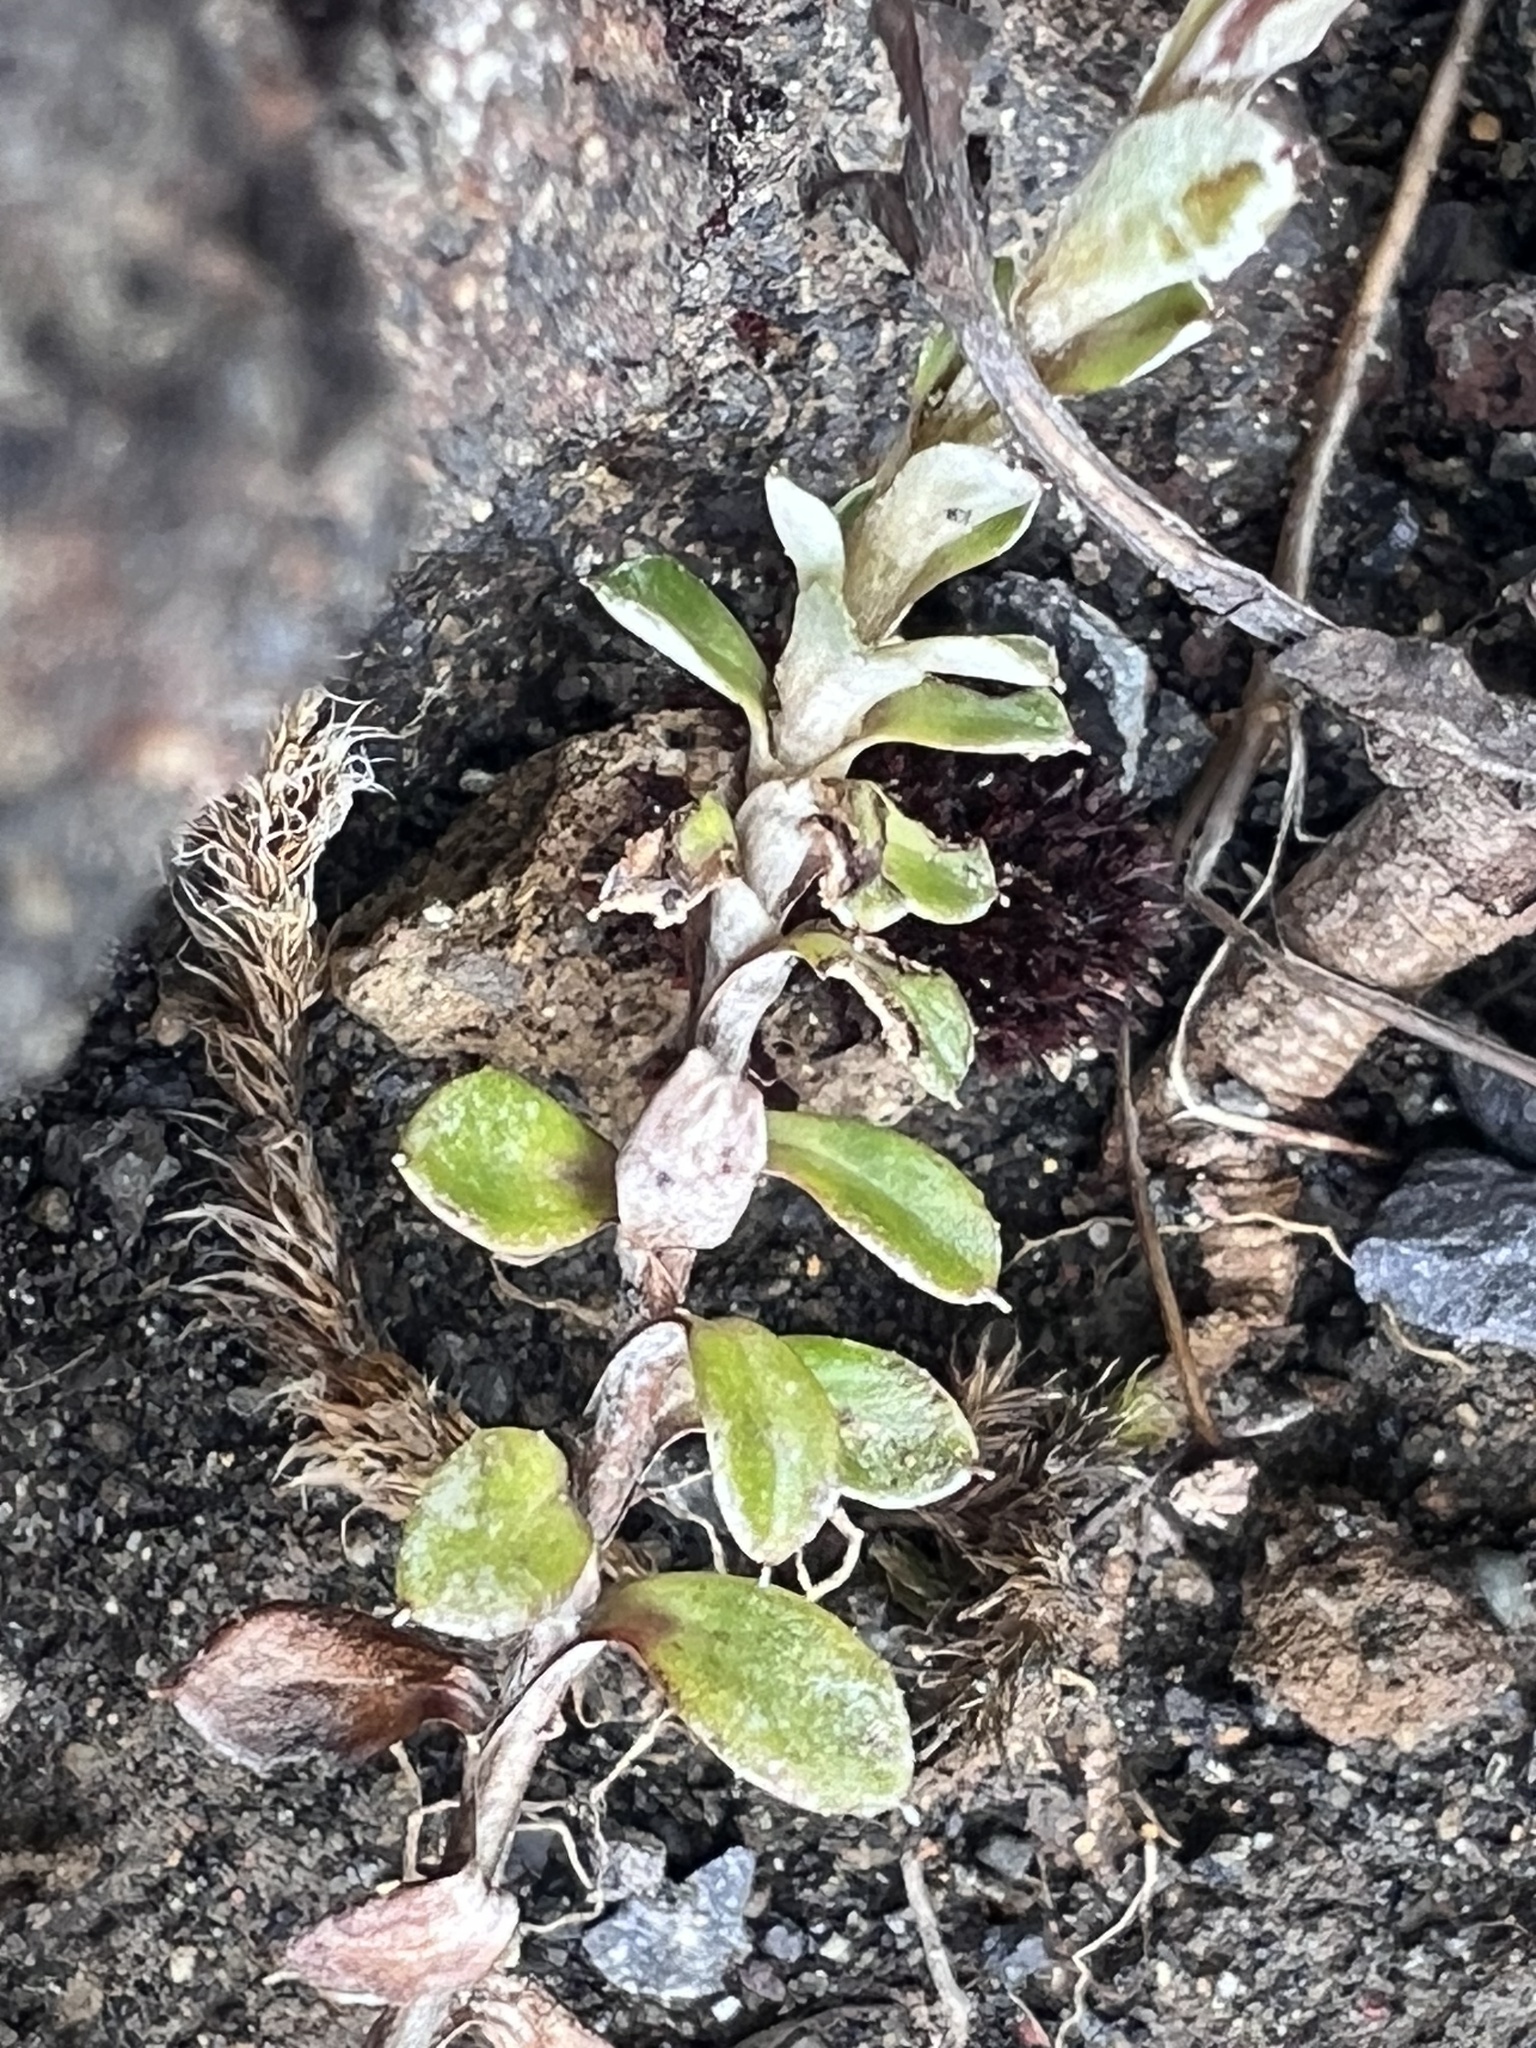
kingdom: Plantae
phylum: Tracheophyta
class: Magnoliopsida
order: Asterales
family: Asteraceae
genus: Anaphalioides
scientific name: Anaphalioides alpina
